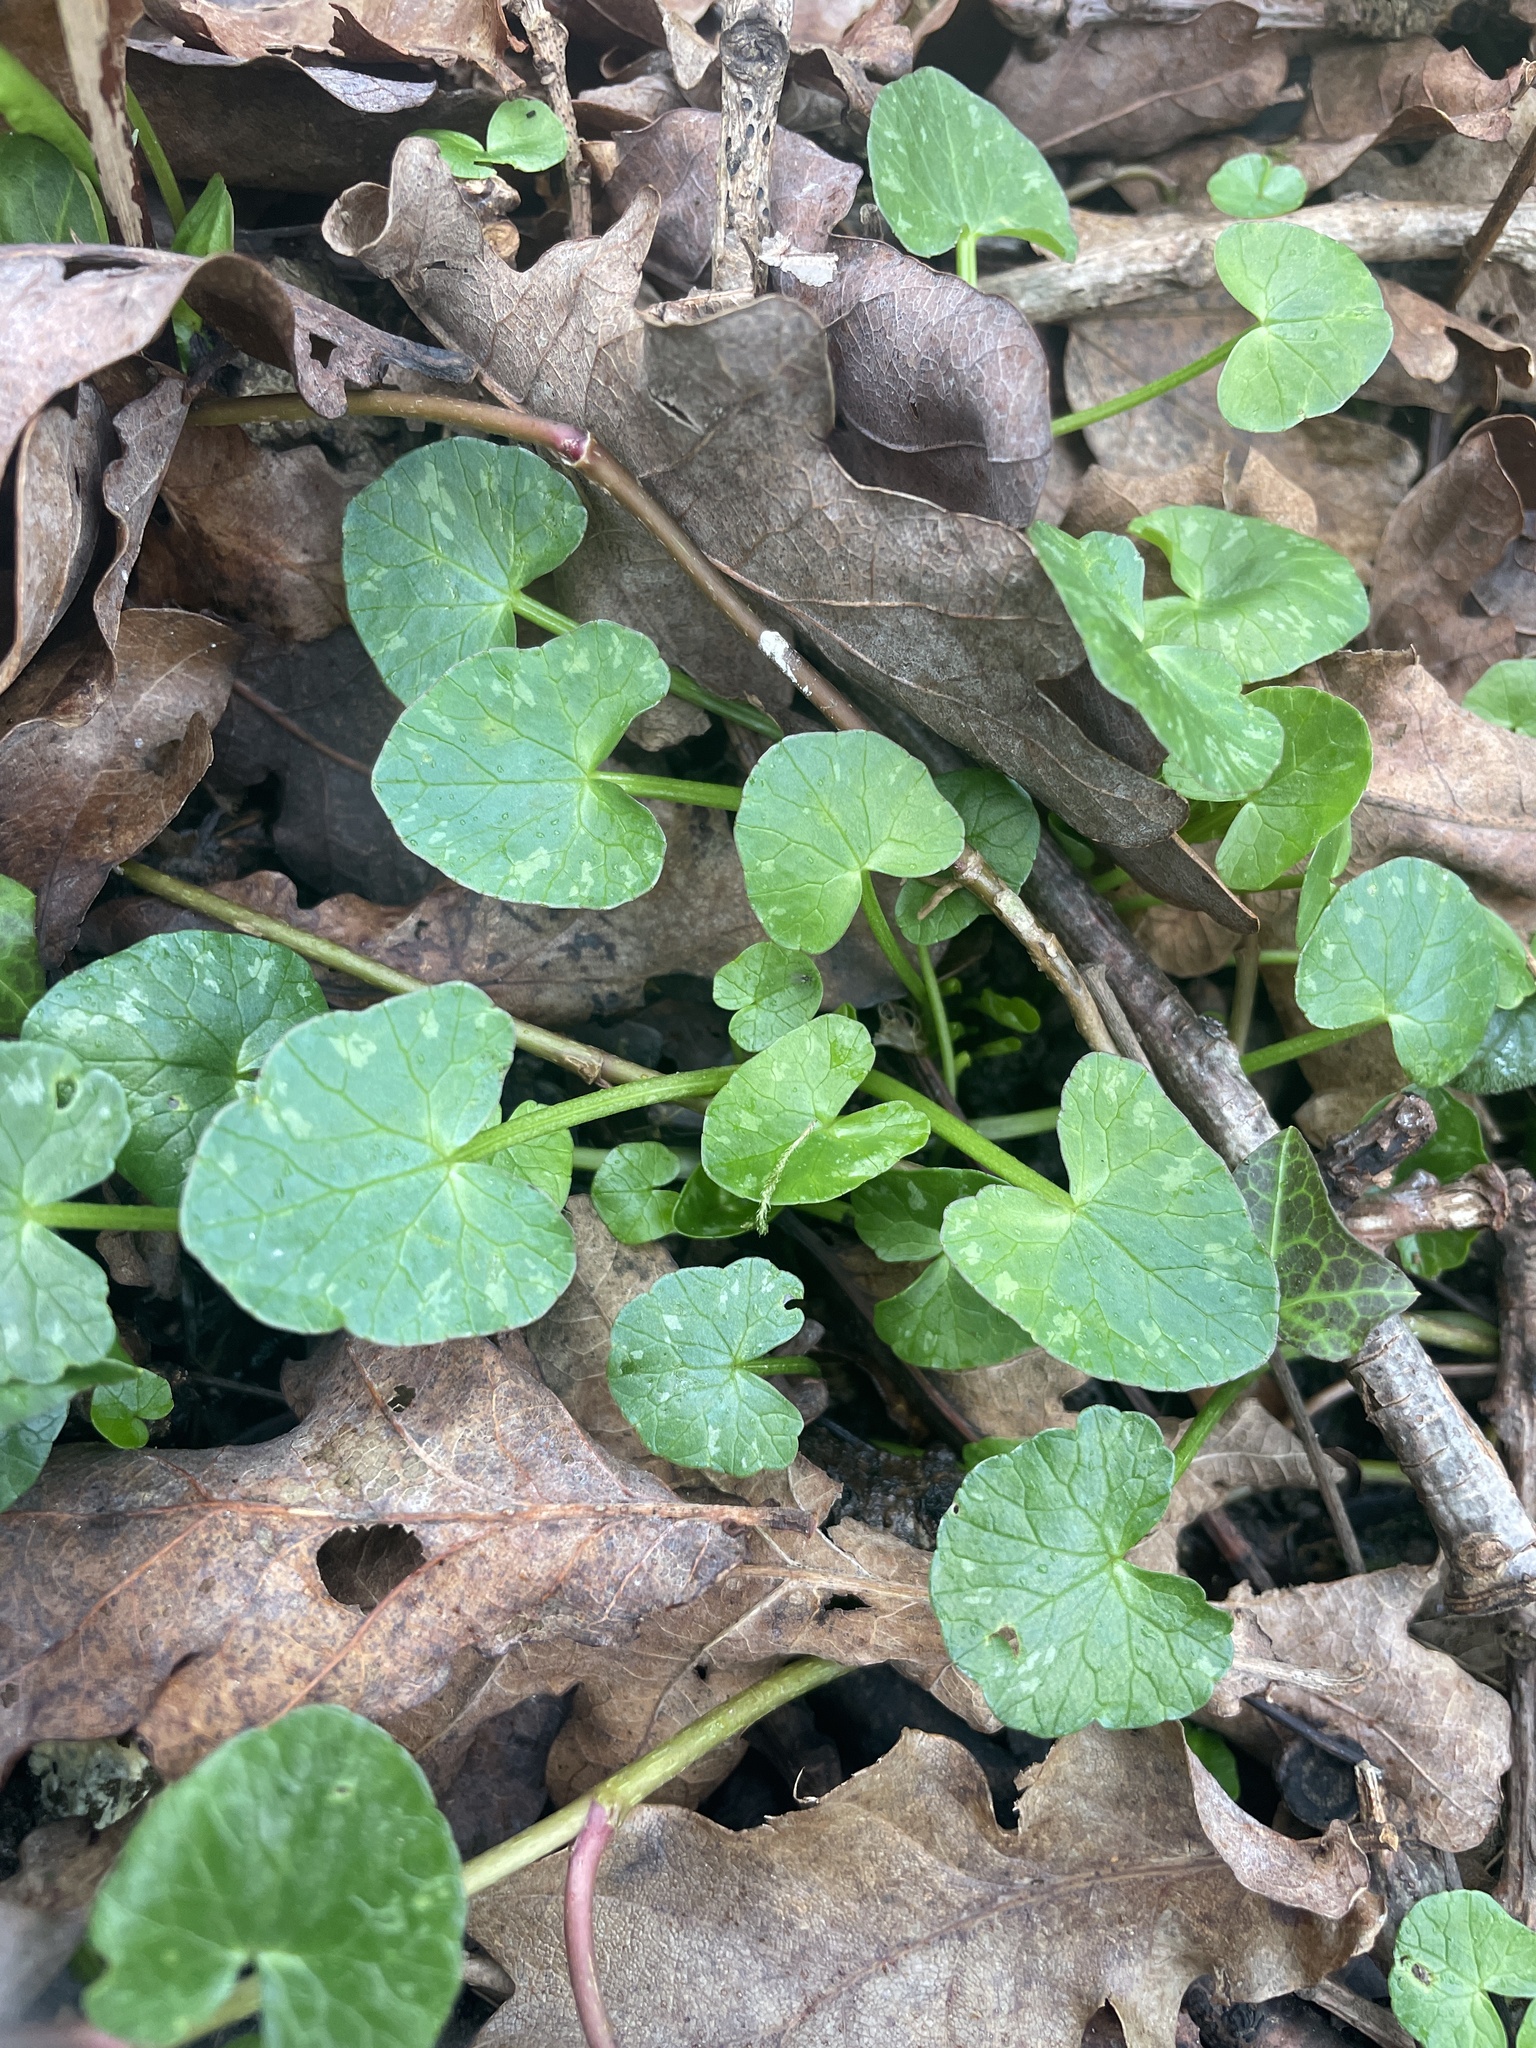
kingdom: Plantae
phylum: Tracheophyta
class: Magnoliopsida
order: Ranunculales
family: Ranunculaceae
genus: Ficaria
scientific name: Ficaria verna
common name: Lesser celandine
